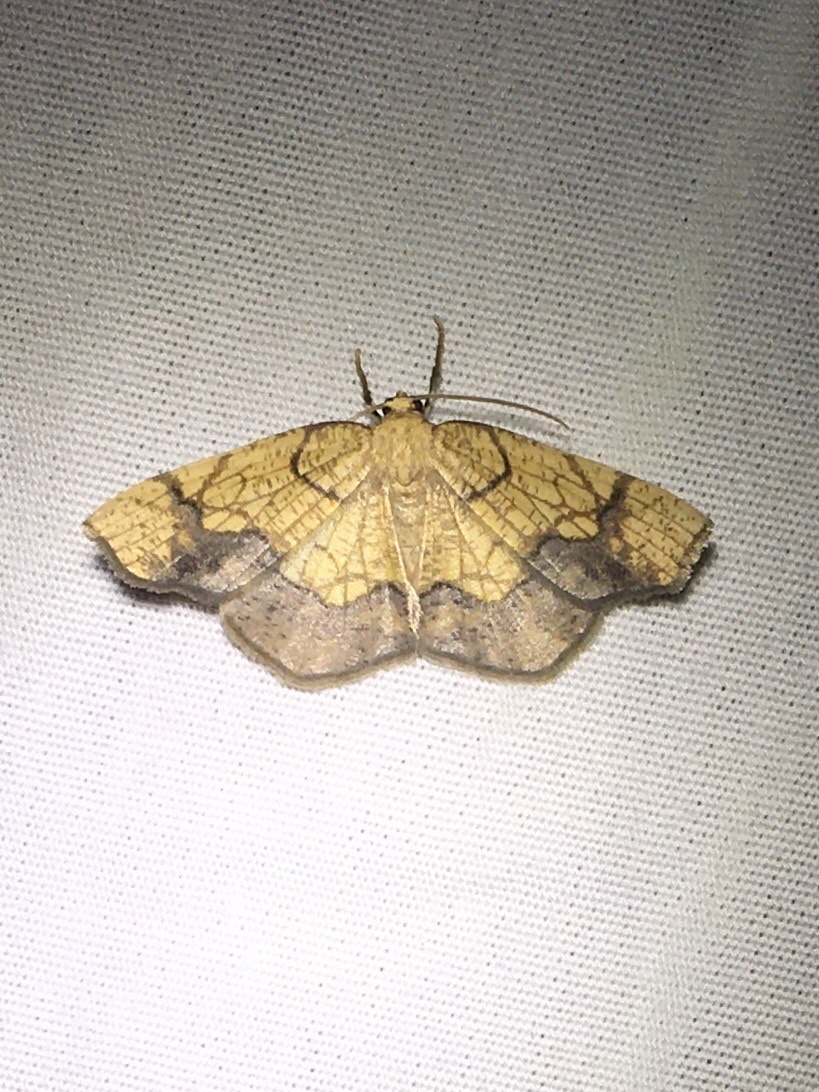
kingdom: Animalia
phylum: Arthropoda
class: Insecta
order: Lepidoptera
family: Geometridae
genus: Nematocampa
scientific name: Nematocampa resistaria
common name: Horned spanworm moth
